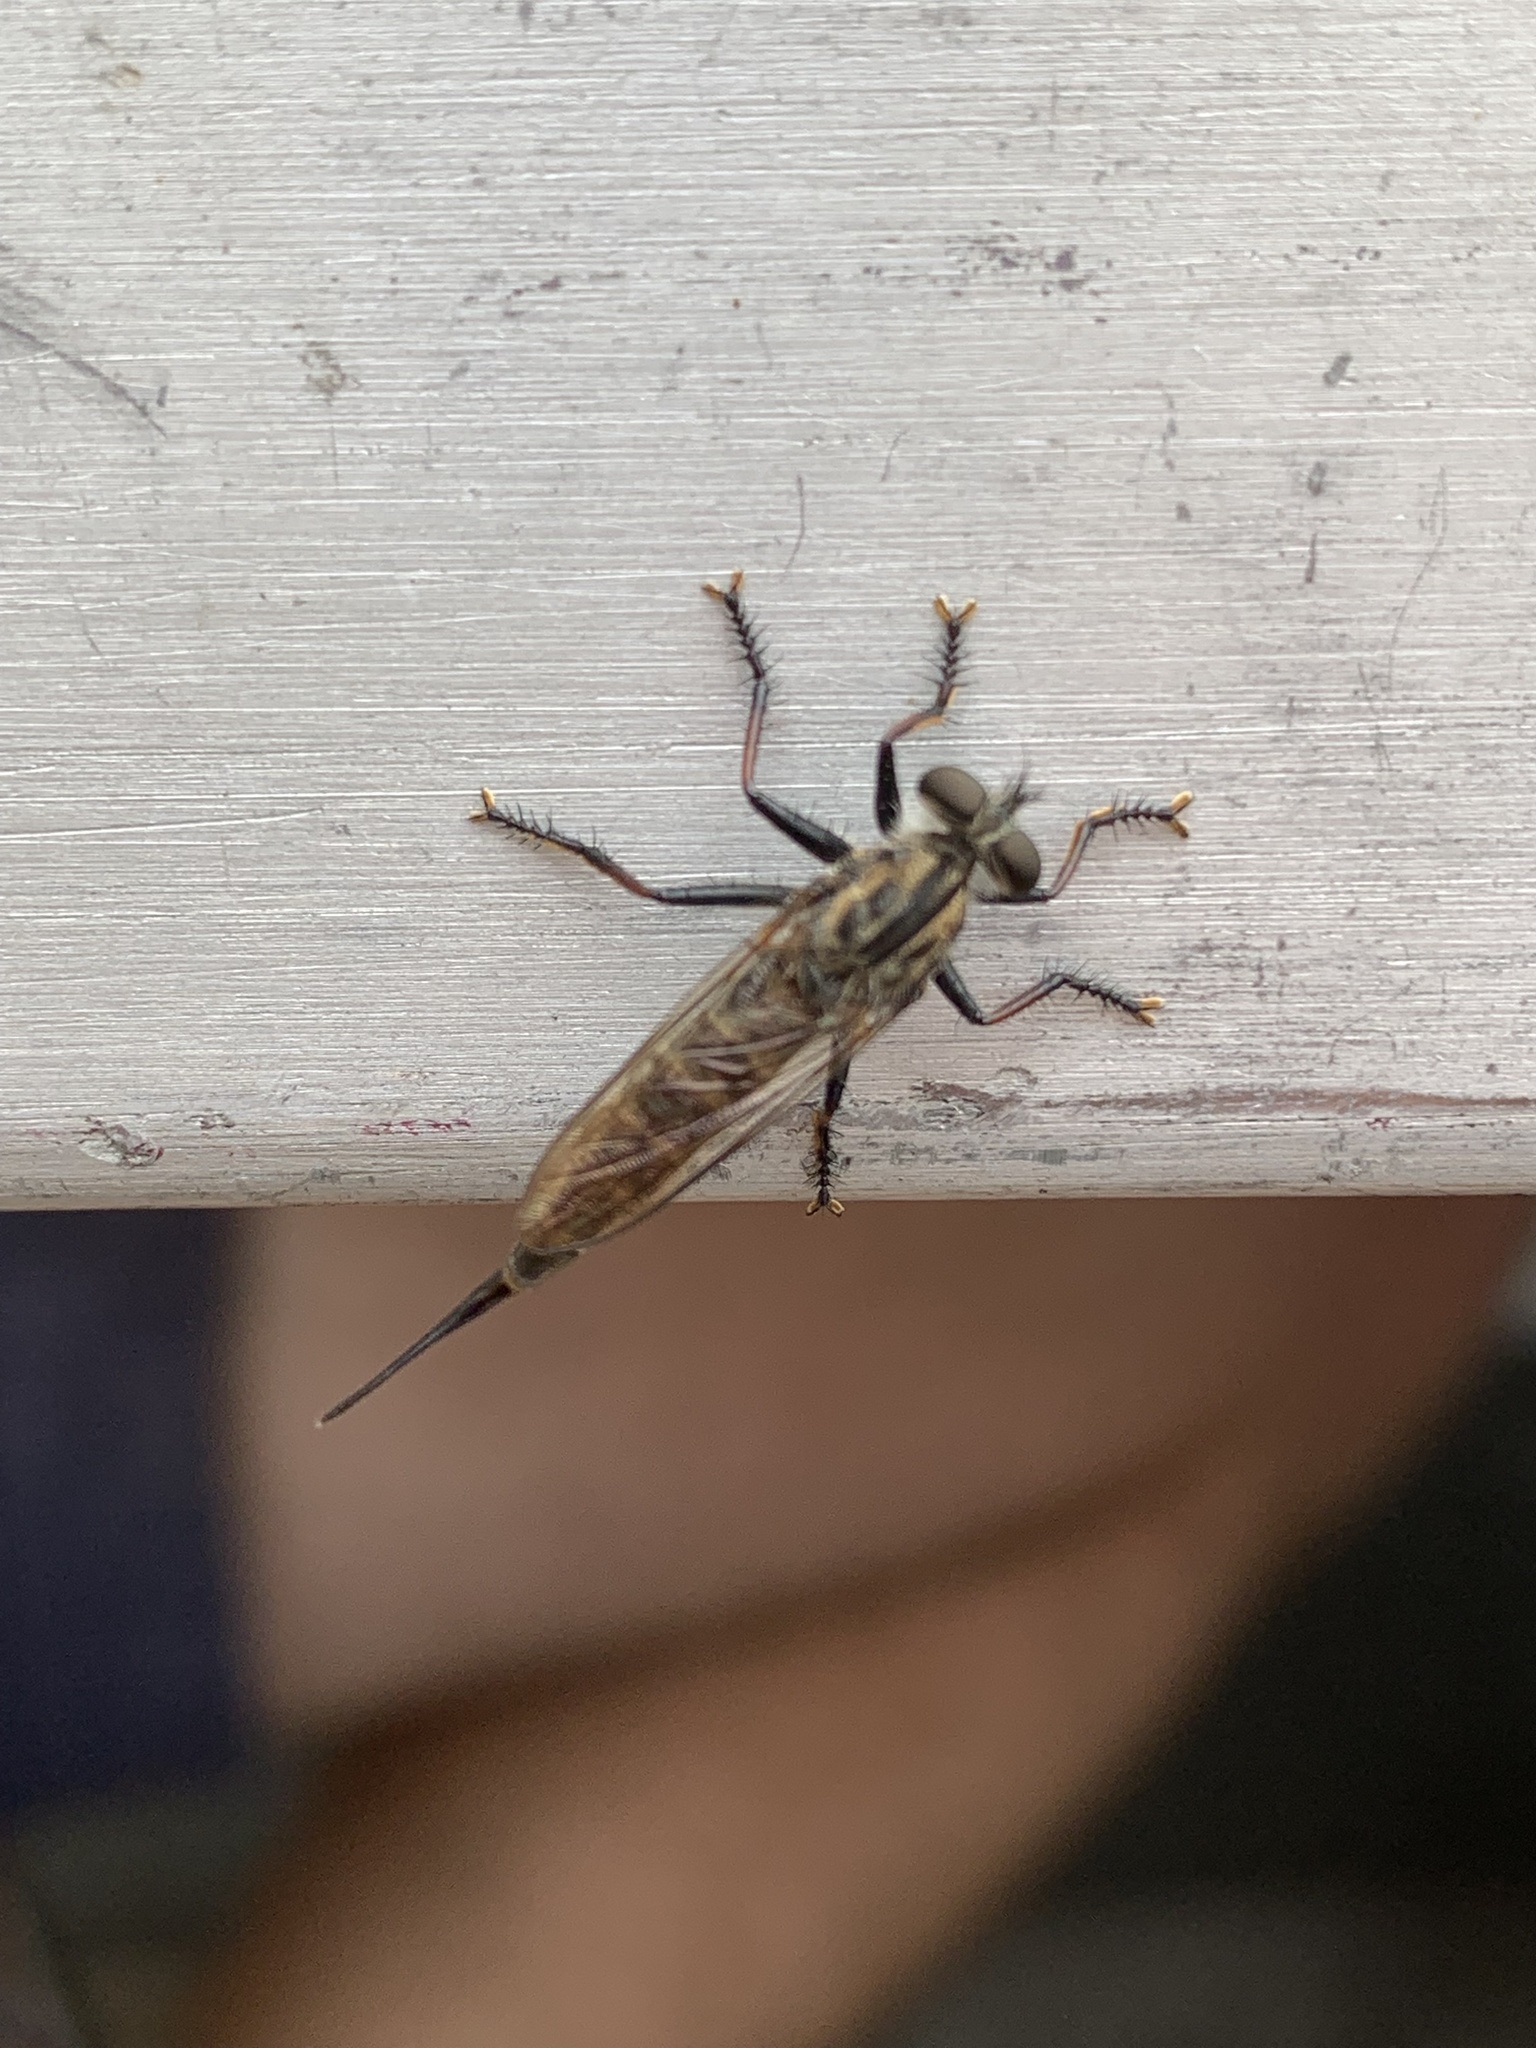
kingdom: Animalia
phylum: Arthropoda
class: Insecta
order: Diptera
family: Asilidae
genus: Efferia
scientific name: Efferia aestuans
